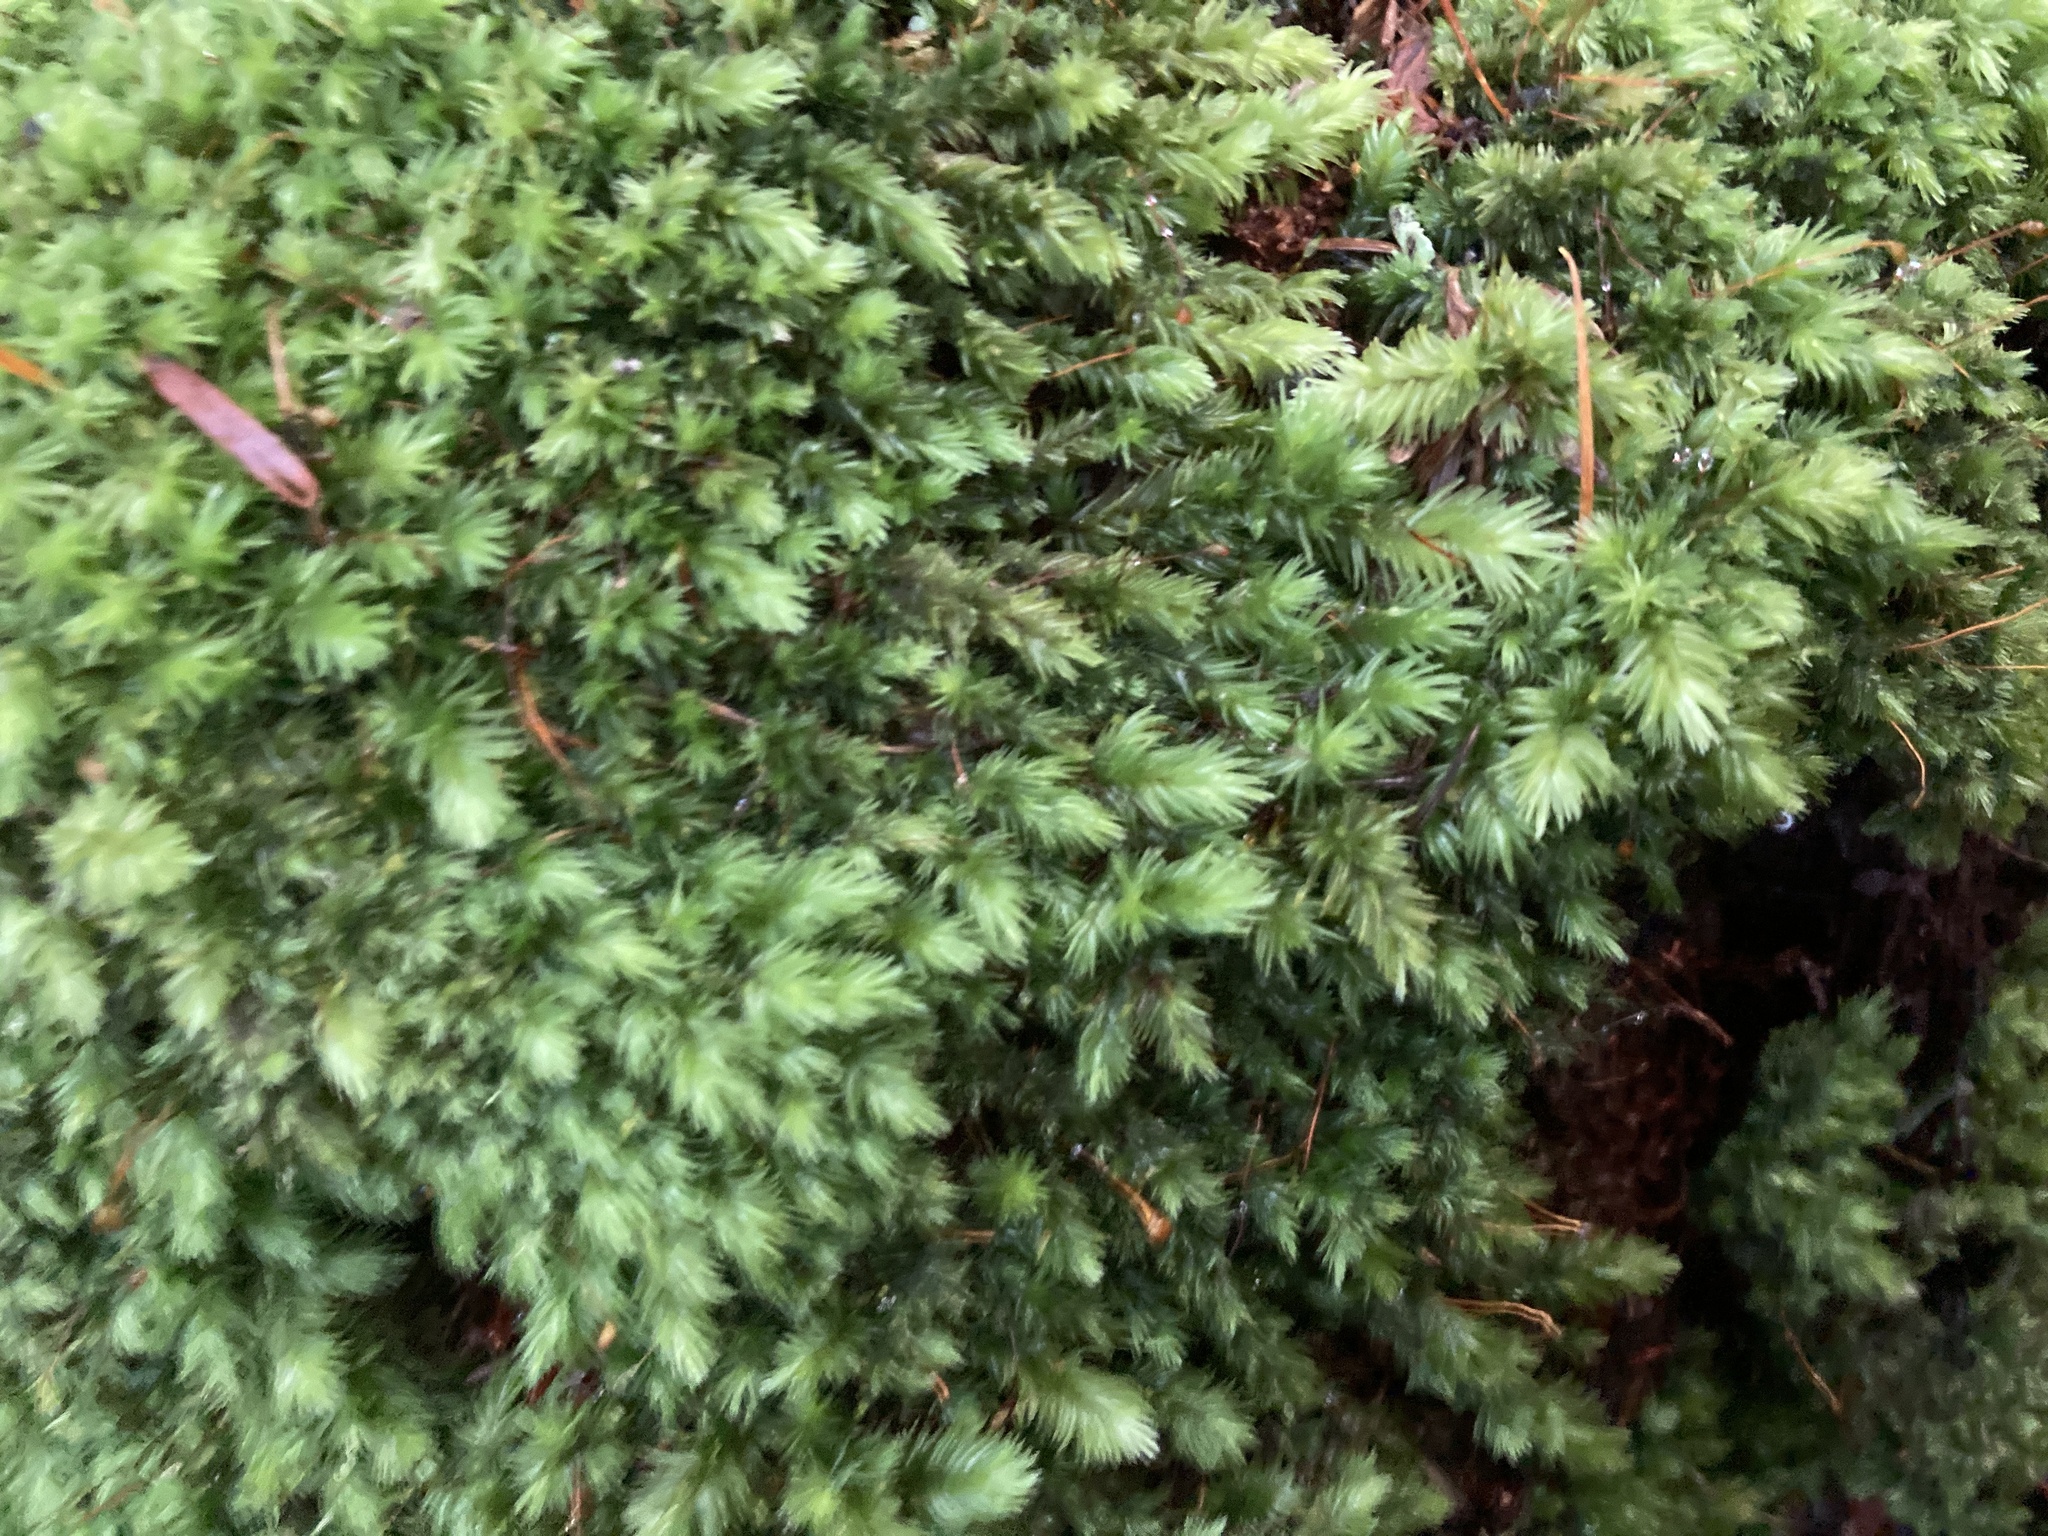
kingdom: Plantae
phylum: Bryophyta
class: Bryopsida
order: Dicranales
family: Leucobryaceae
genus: Leucobryum
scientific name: Leucobryum javense
